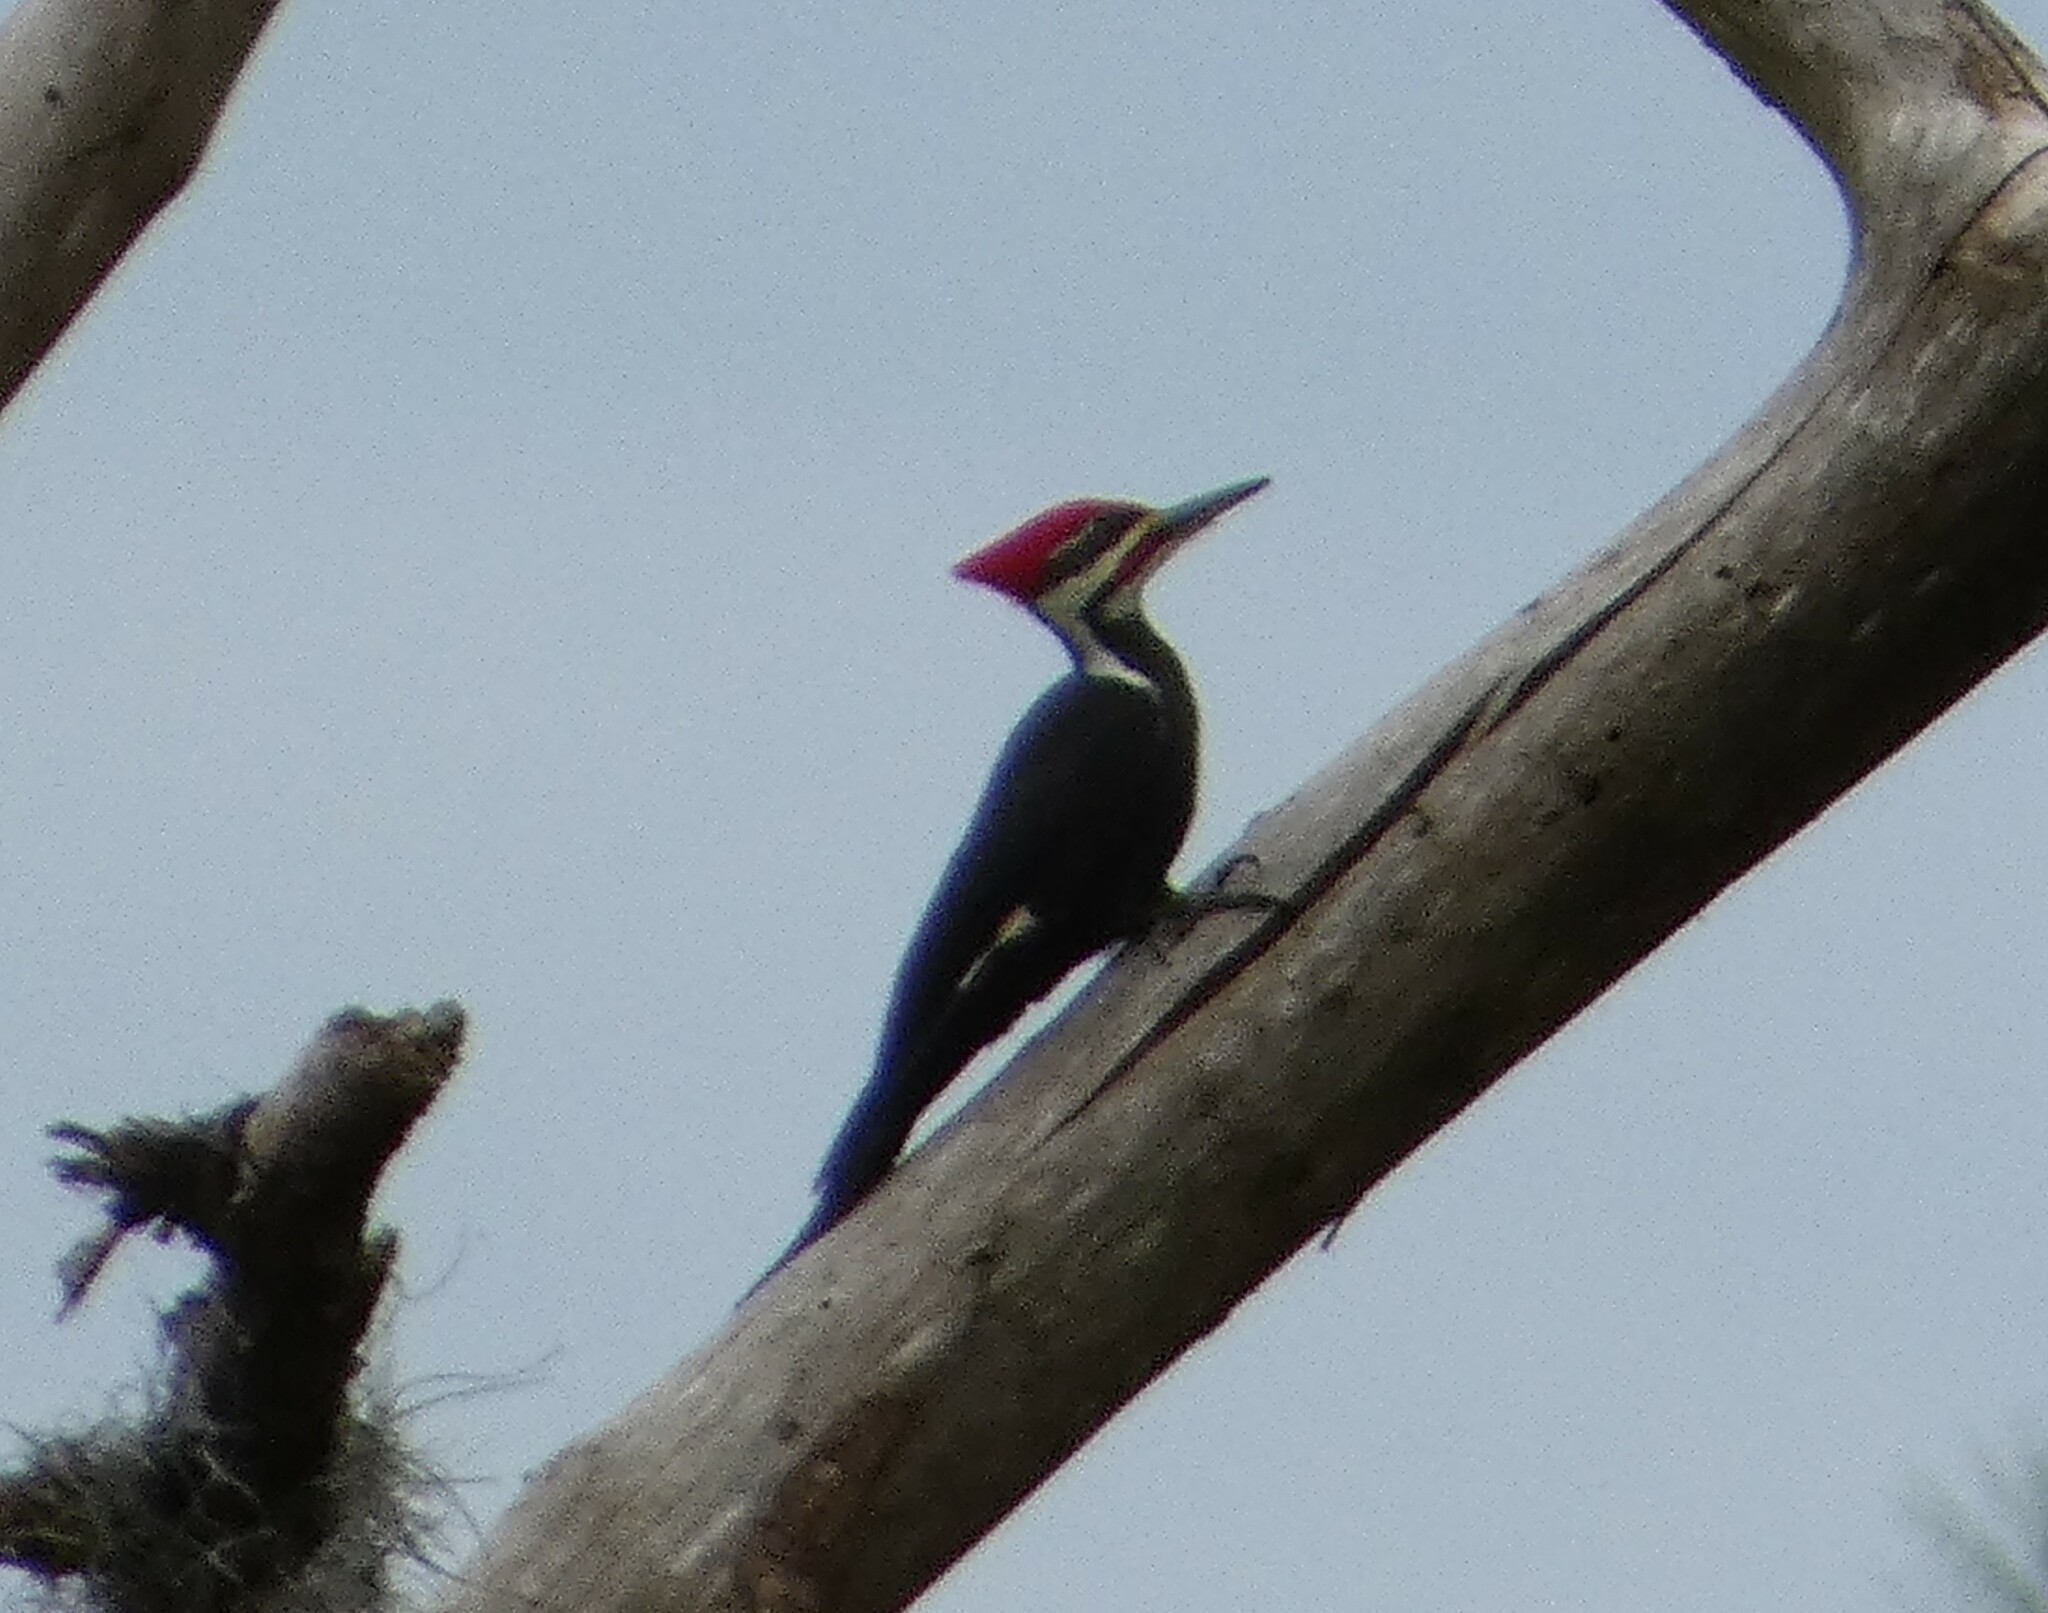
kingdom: Animalia
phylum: Chordata
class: Aves
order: Piciformes
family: Picidae
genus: Dryocopus
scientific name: Dryocopus pileatus
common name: Pileated woodpecker
